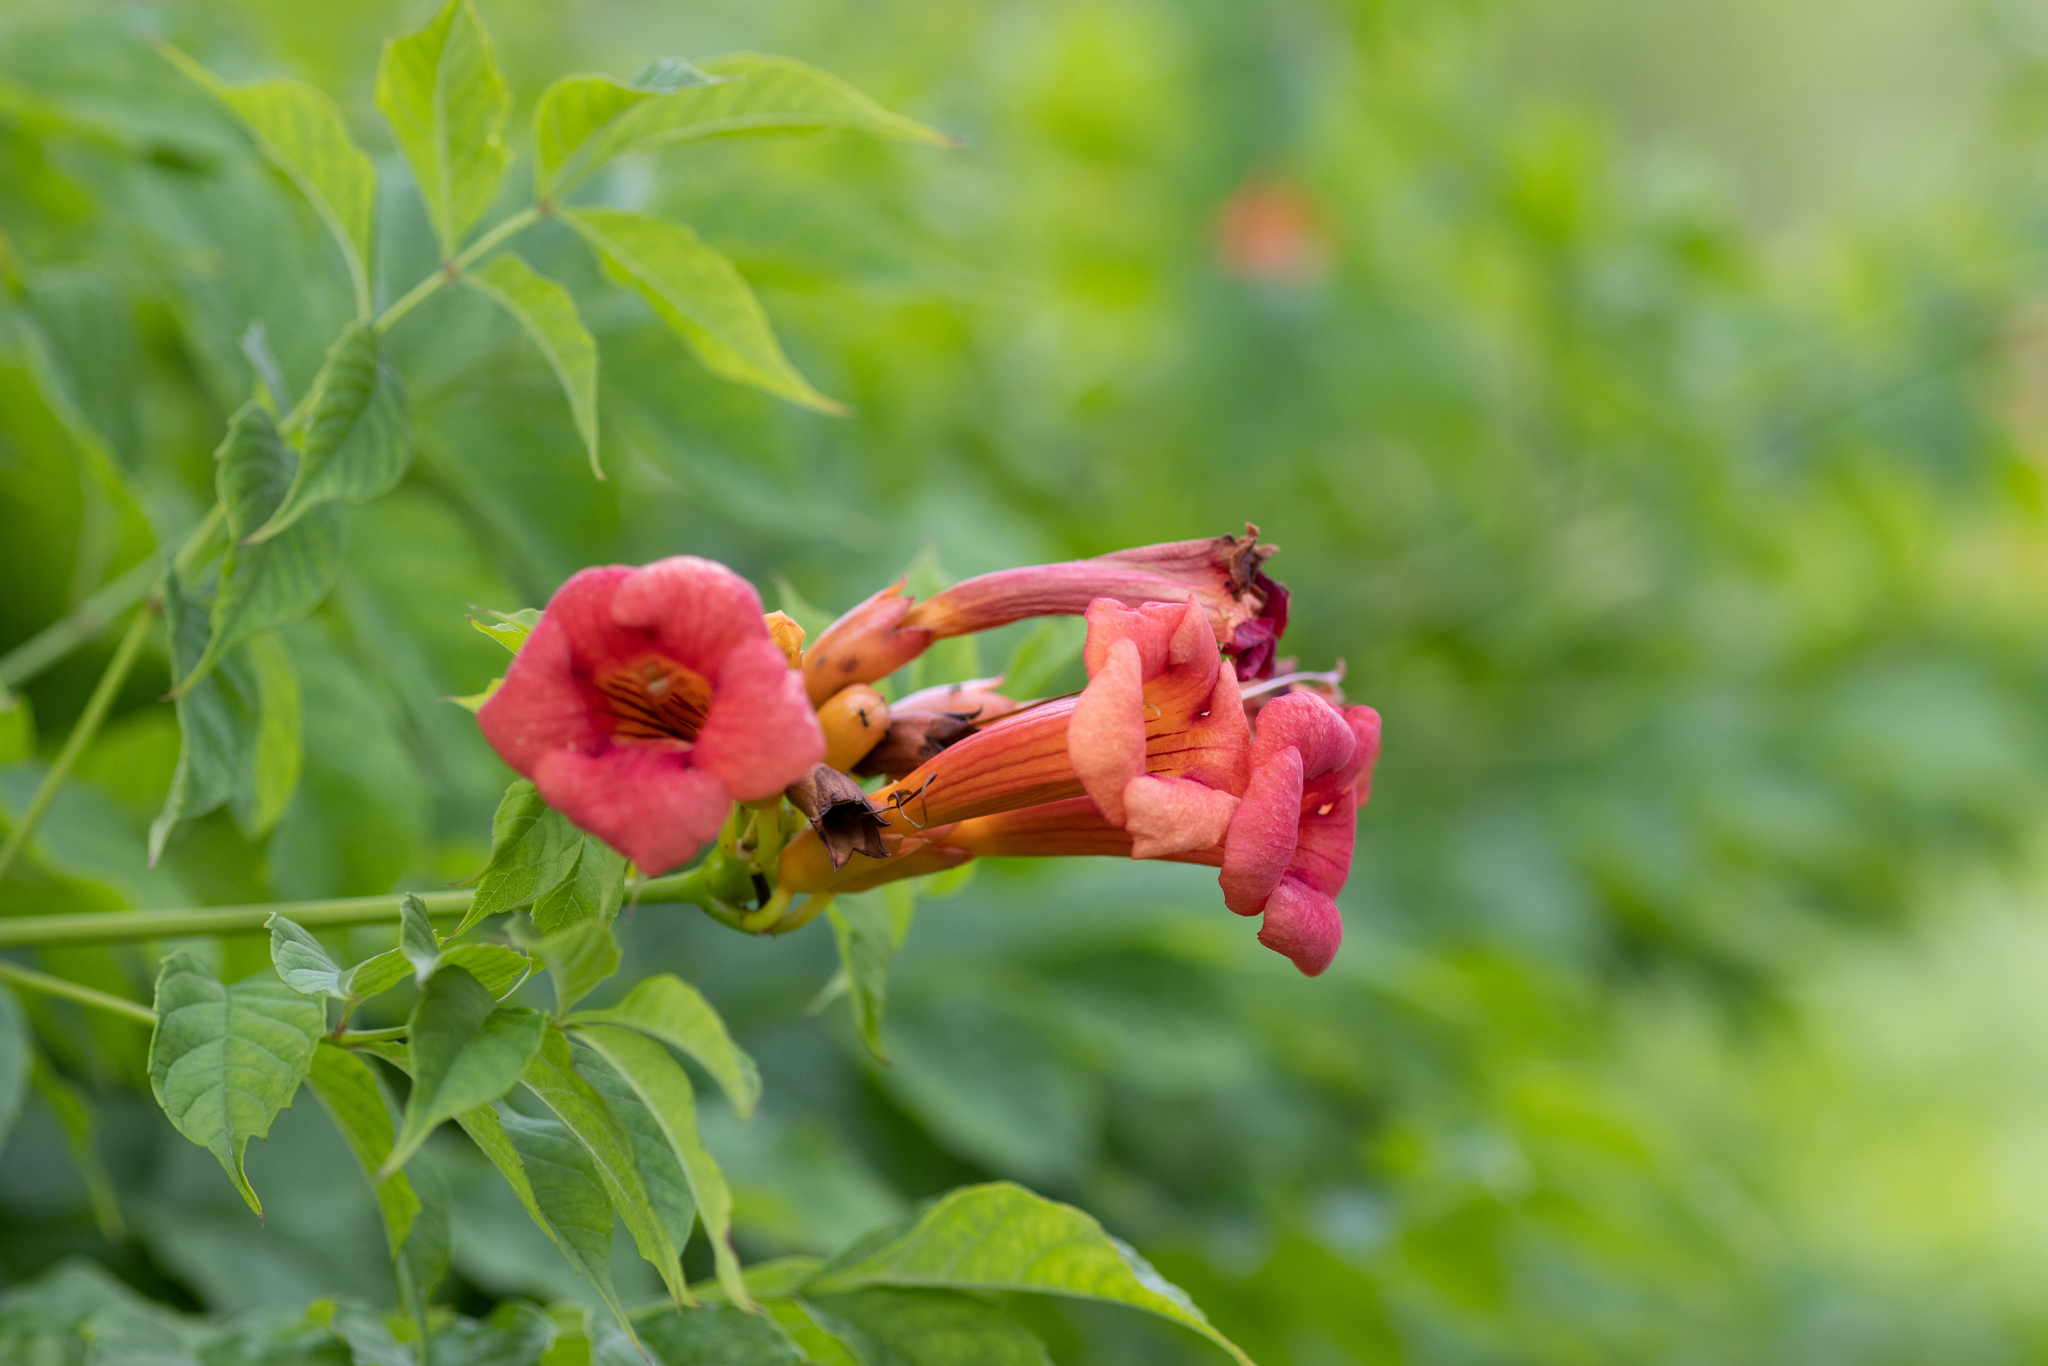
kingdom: Plantae
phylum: Tracheophyta
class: Magnoliopsida
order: Lamiales
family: Bignoniaceae
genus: Campsis
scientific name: Campsis radicans
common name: Trumpet-creeper
